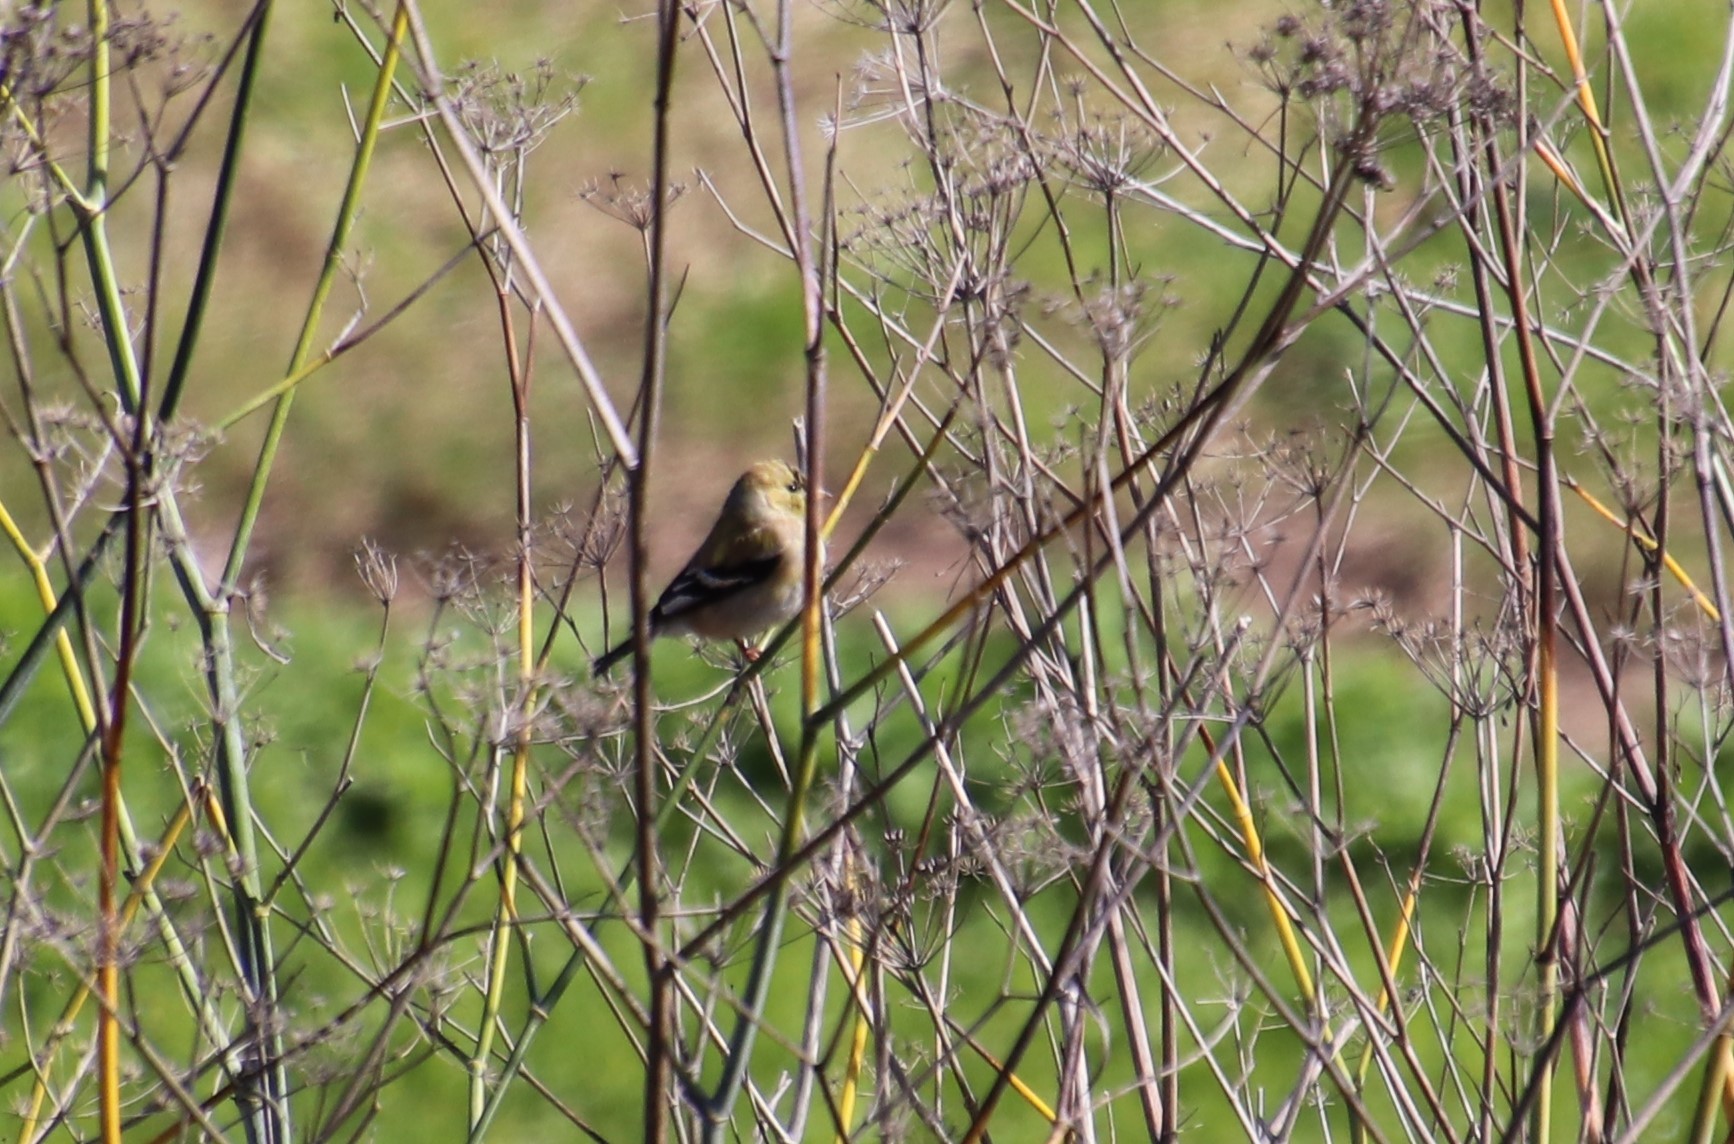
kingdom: Animalia
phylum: Chordata
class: Aves
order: Passeriformes
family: Fringillidae
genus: Spinus
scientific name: Spinus tristis
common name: American goldfinch
